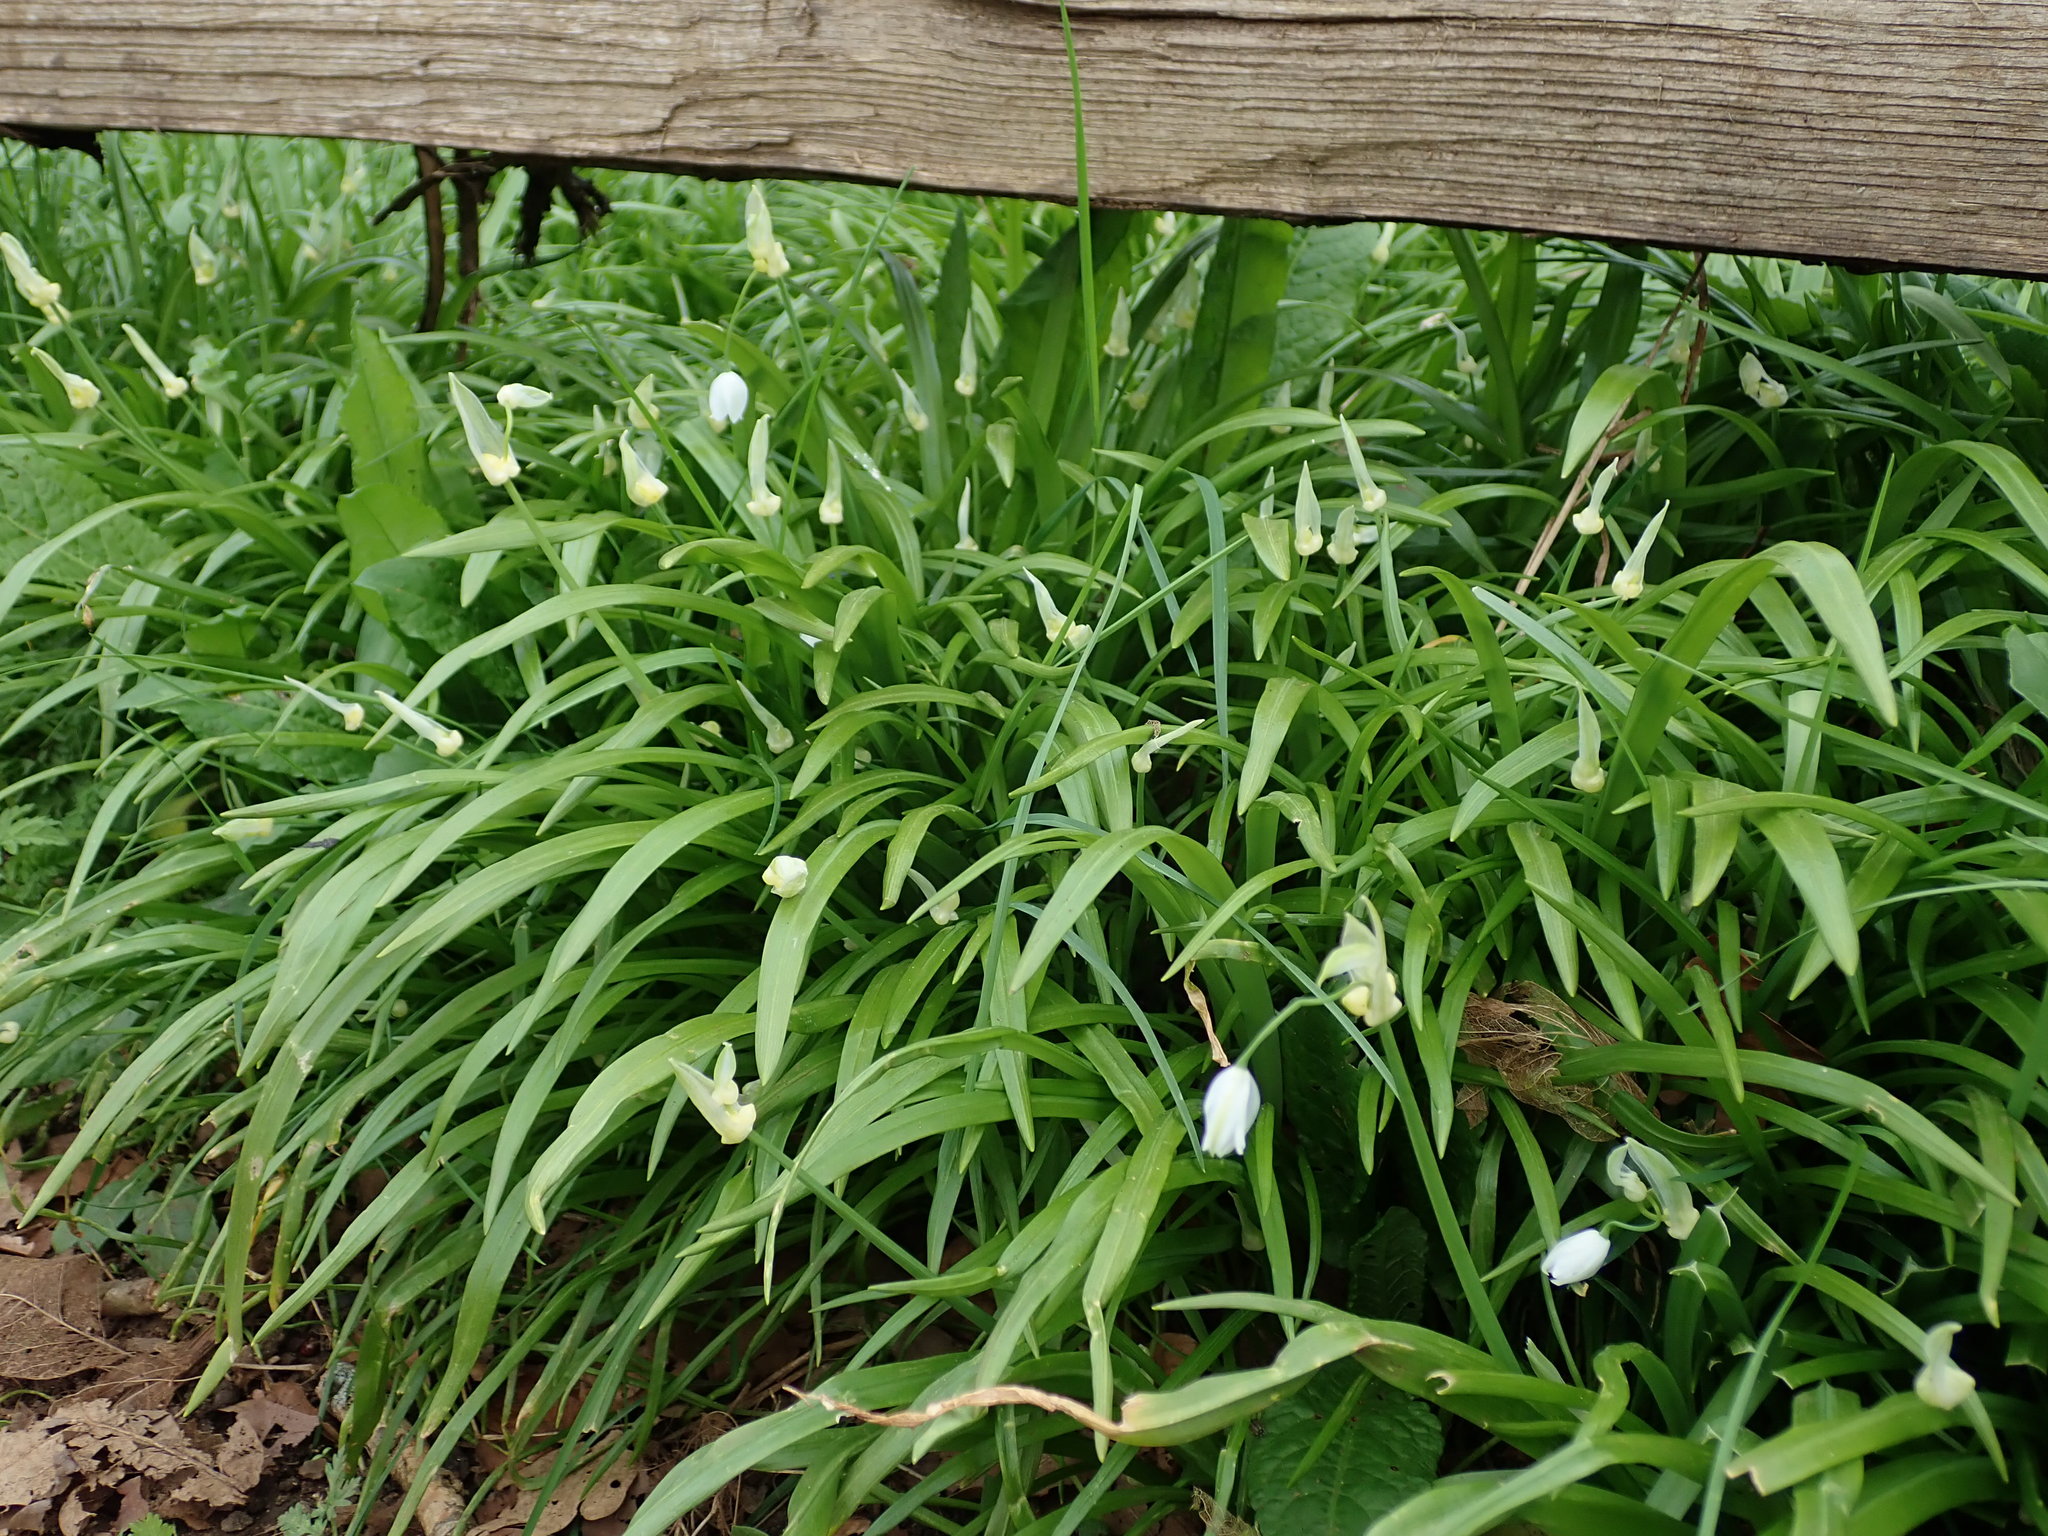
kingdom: Plantae
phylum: Tracheophyta
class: Liliopsida
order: Asparagales
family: Amaryllidaceae
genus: Allium
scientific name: Allium paradoxum
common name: Few-flowered garlic
